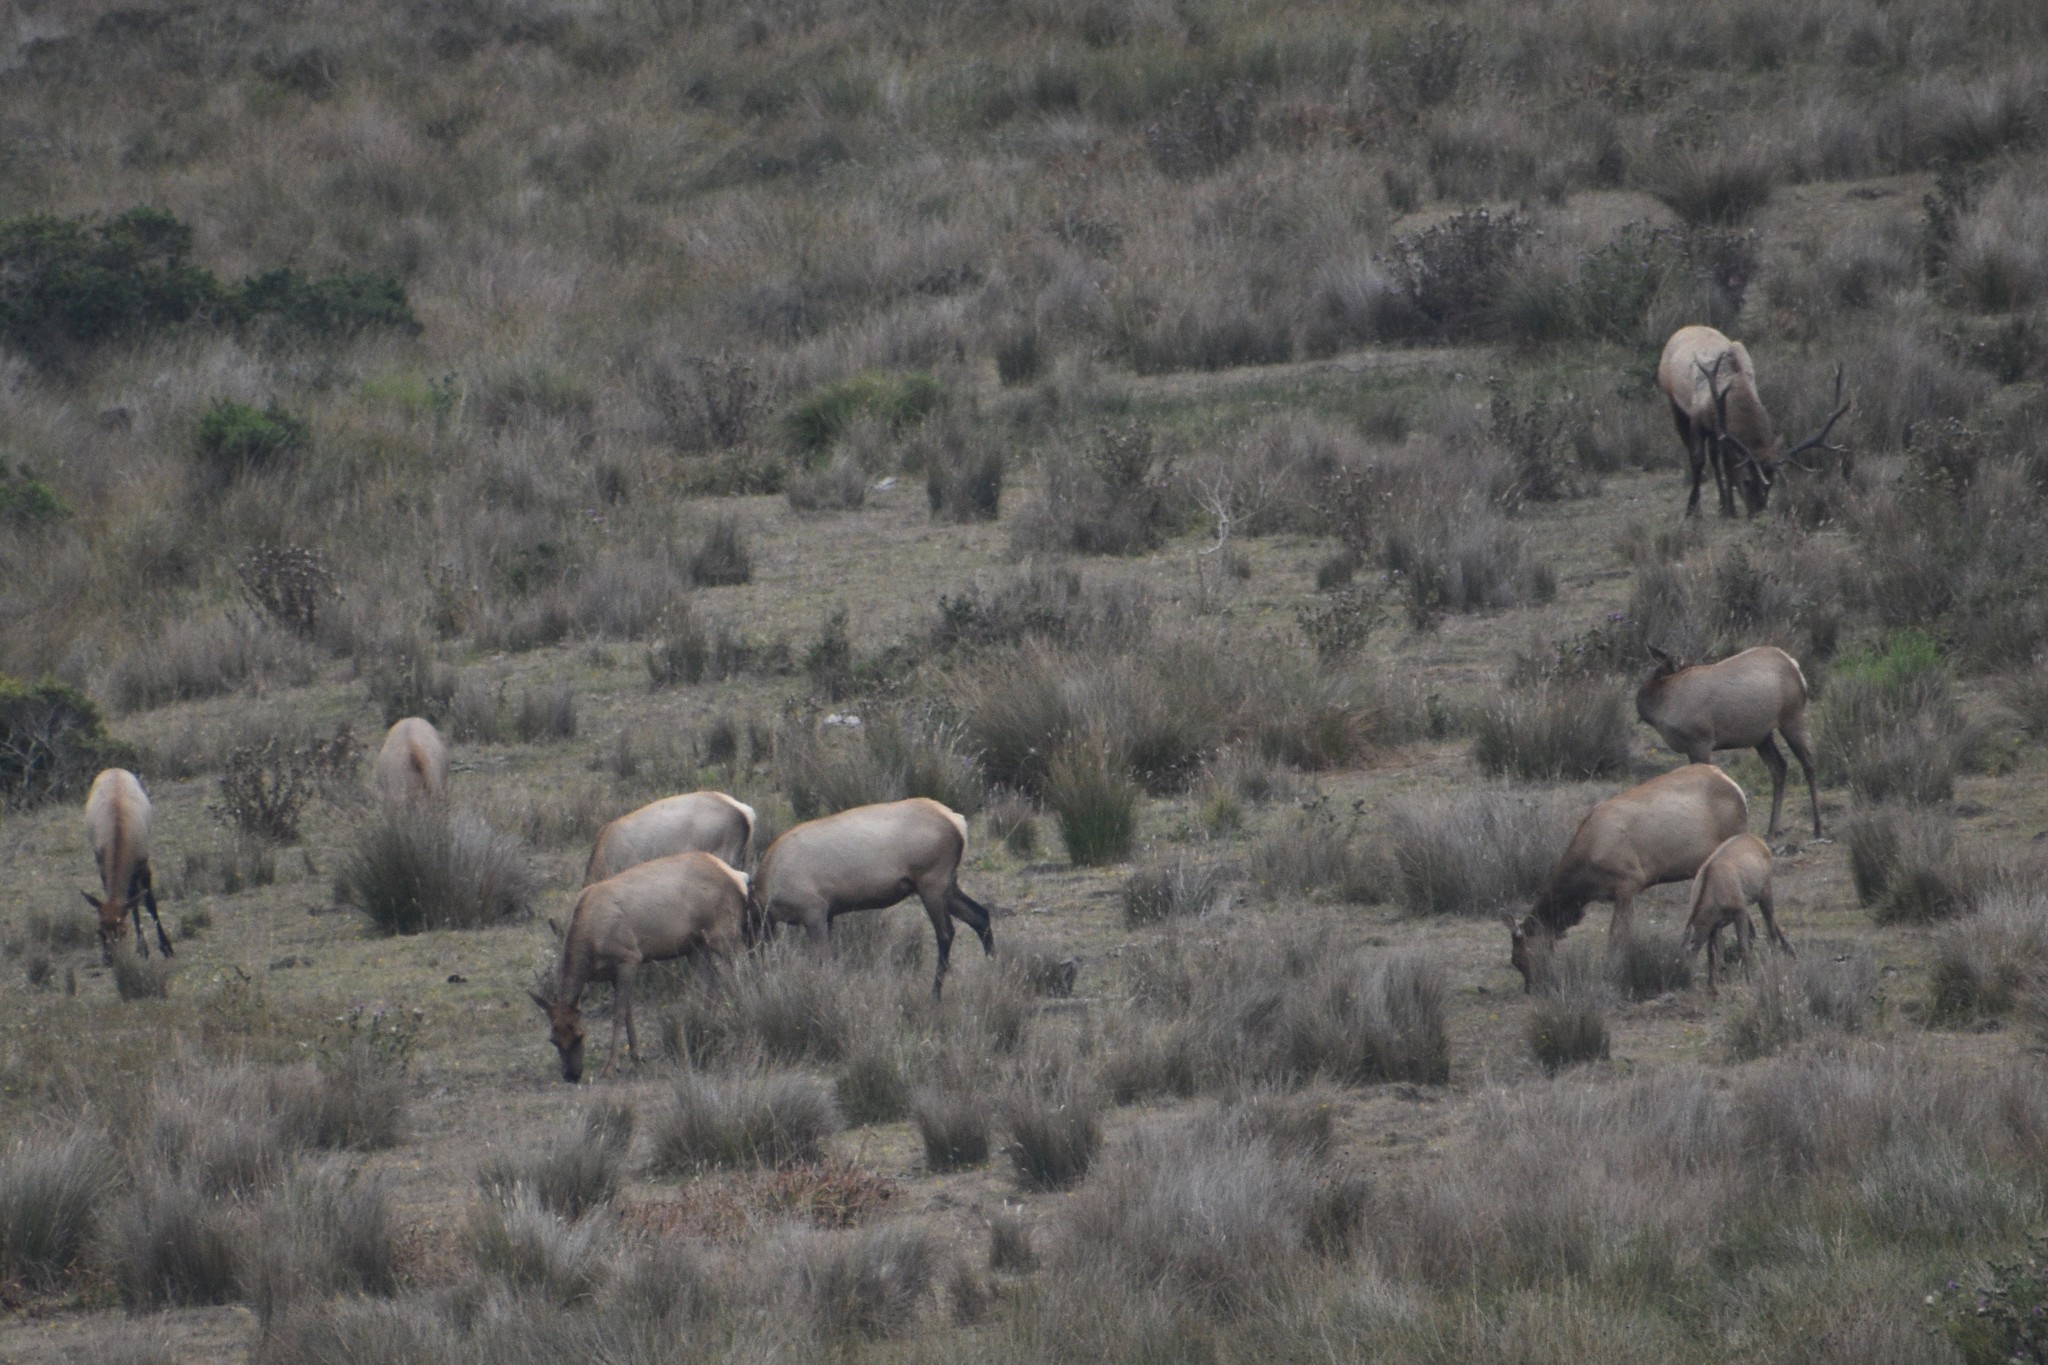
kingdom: Animalia
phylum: Chordata
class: Mammalia
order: Artiodactyla
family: Cervidae
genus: Cervus
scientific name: Cervus elaphus
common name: Red deer
